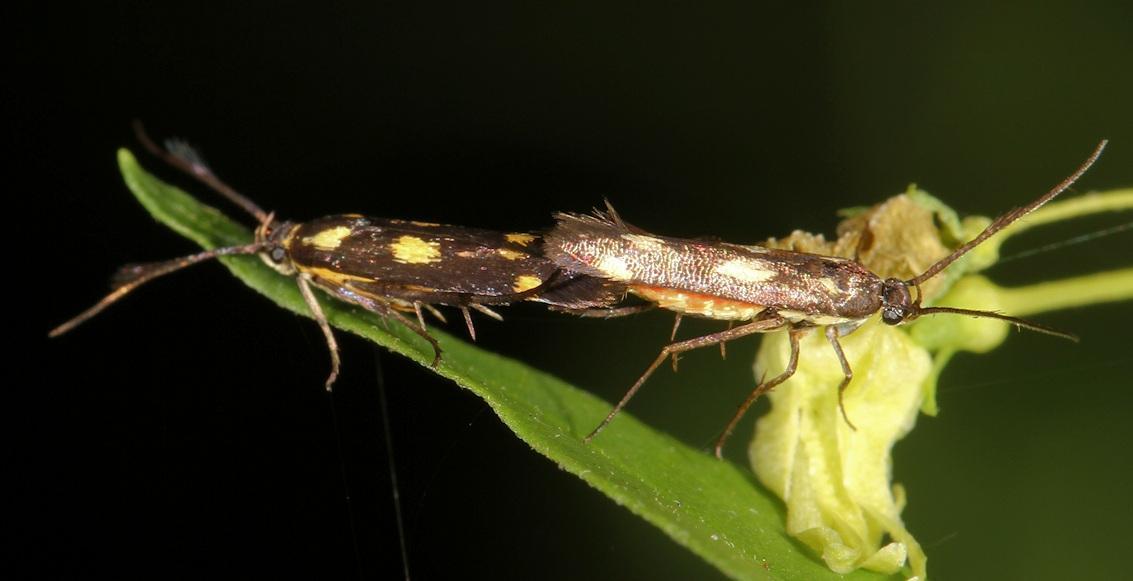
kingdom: Animalia
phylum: Arthropoda
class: Insecta
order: Lepidoptera
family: Scythrididae
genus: Eretmocera
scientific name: Eretmocera syleuta
